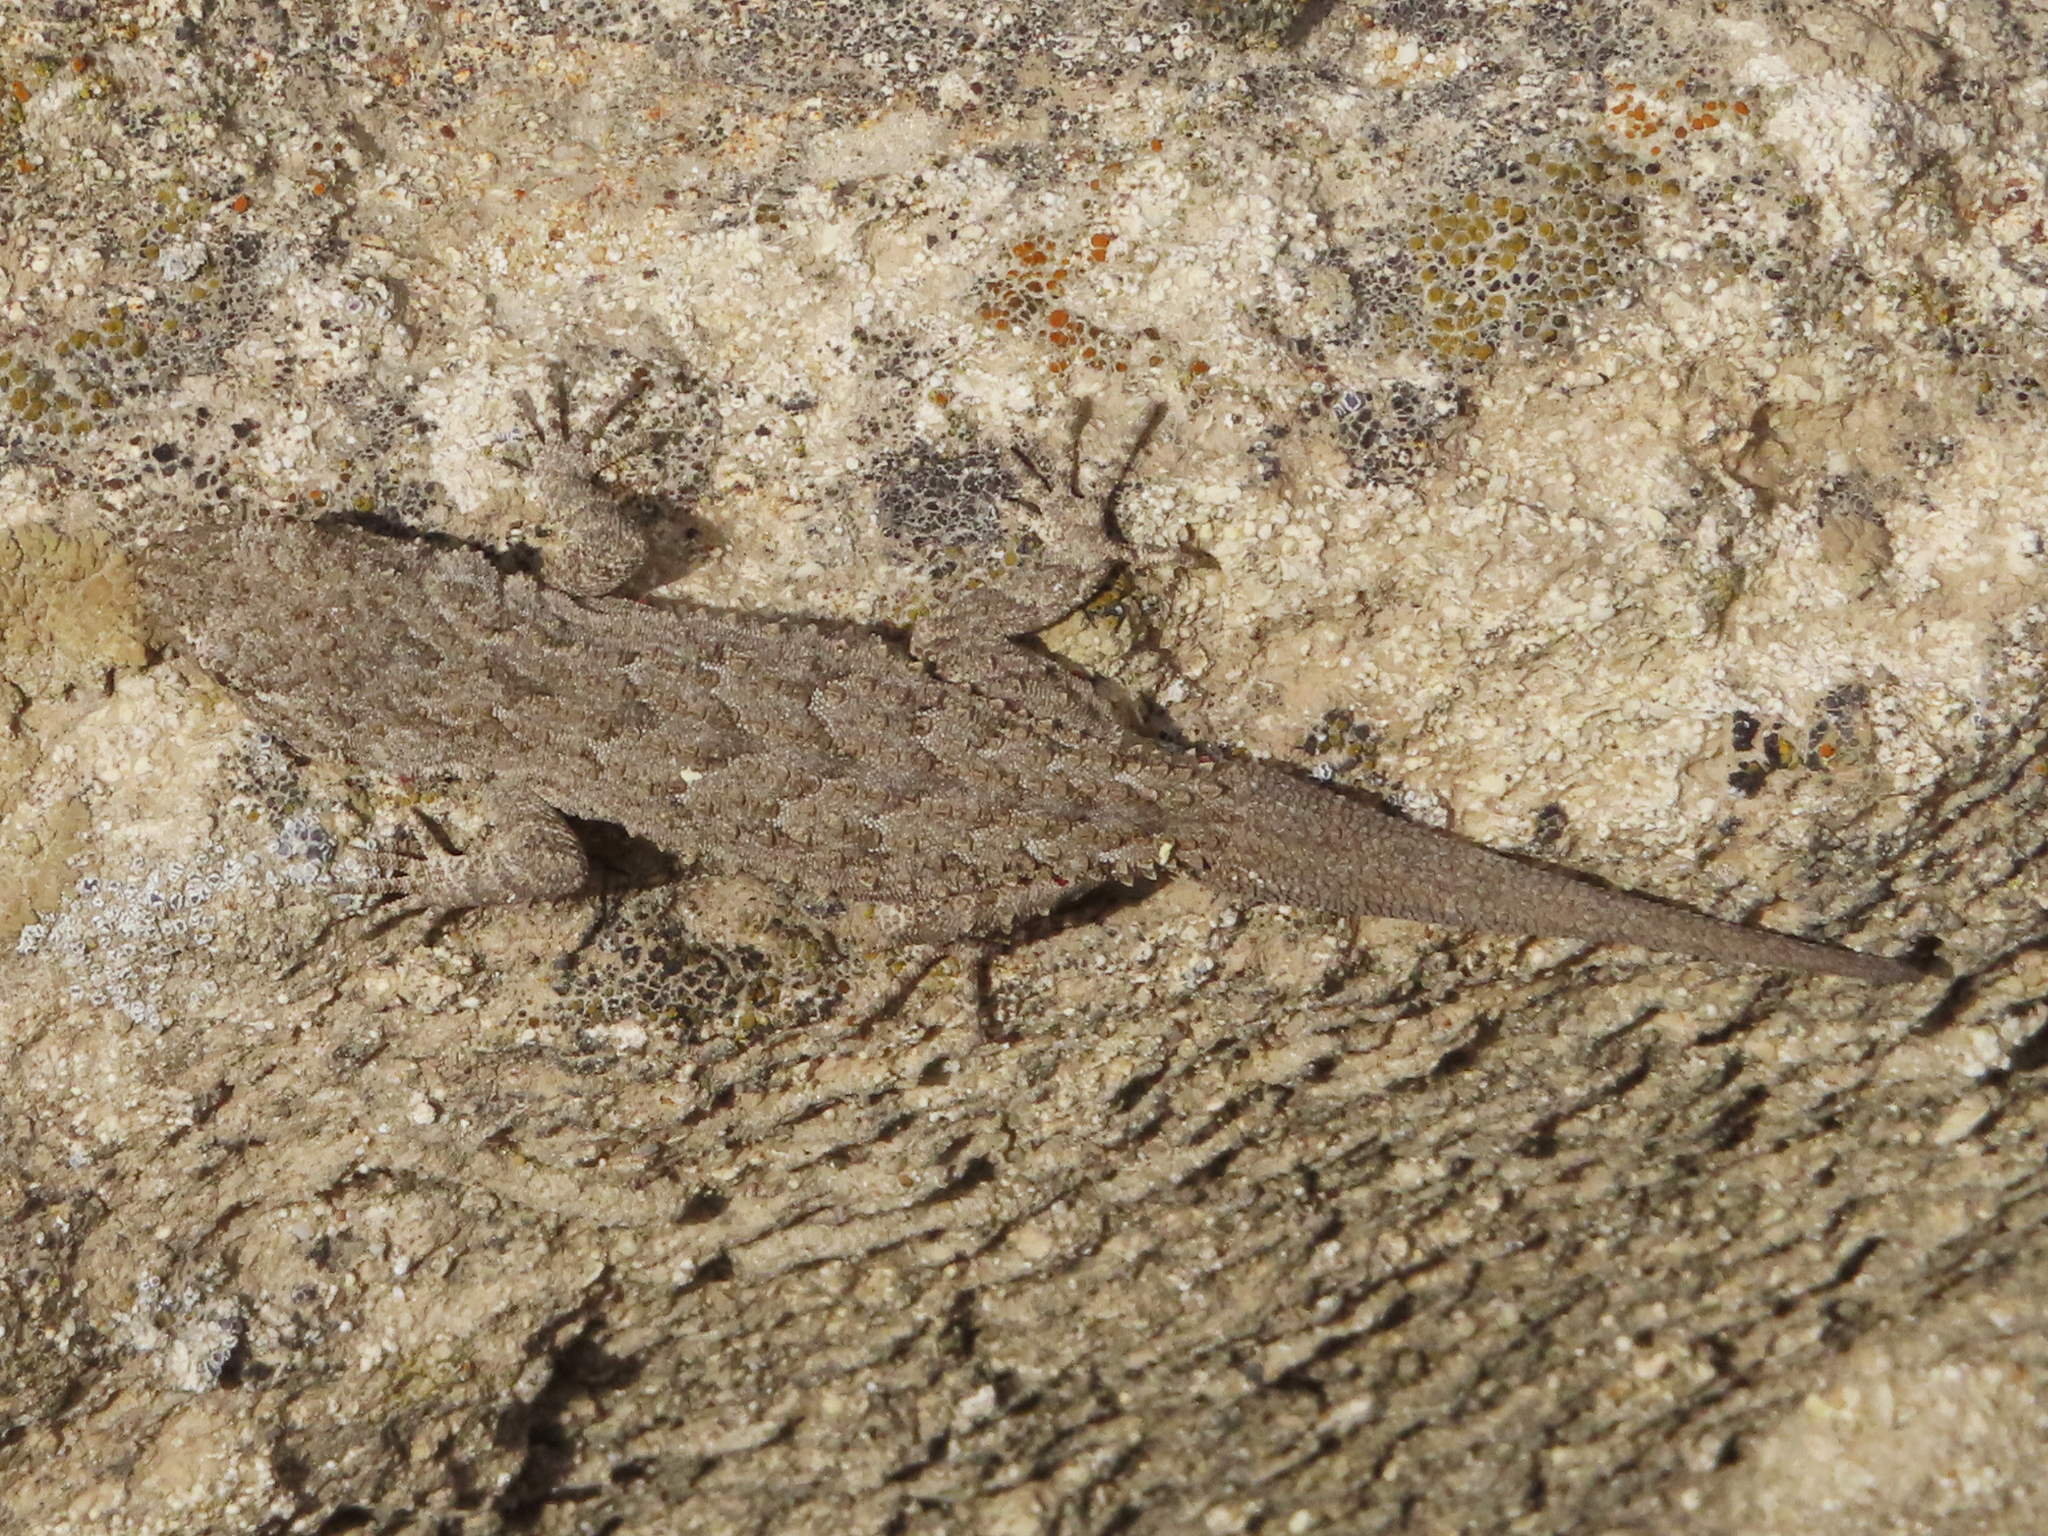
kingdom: Animalia
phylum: Chordata
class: Squamata
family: Gekkonidae
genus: Mediodactylus
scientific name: Mediodactylus russowii
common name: Grey thin-toed gecko
